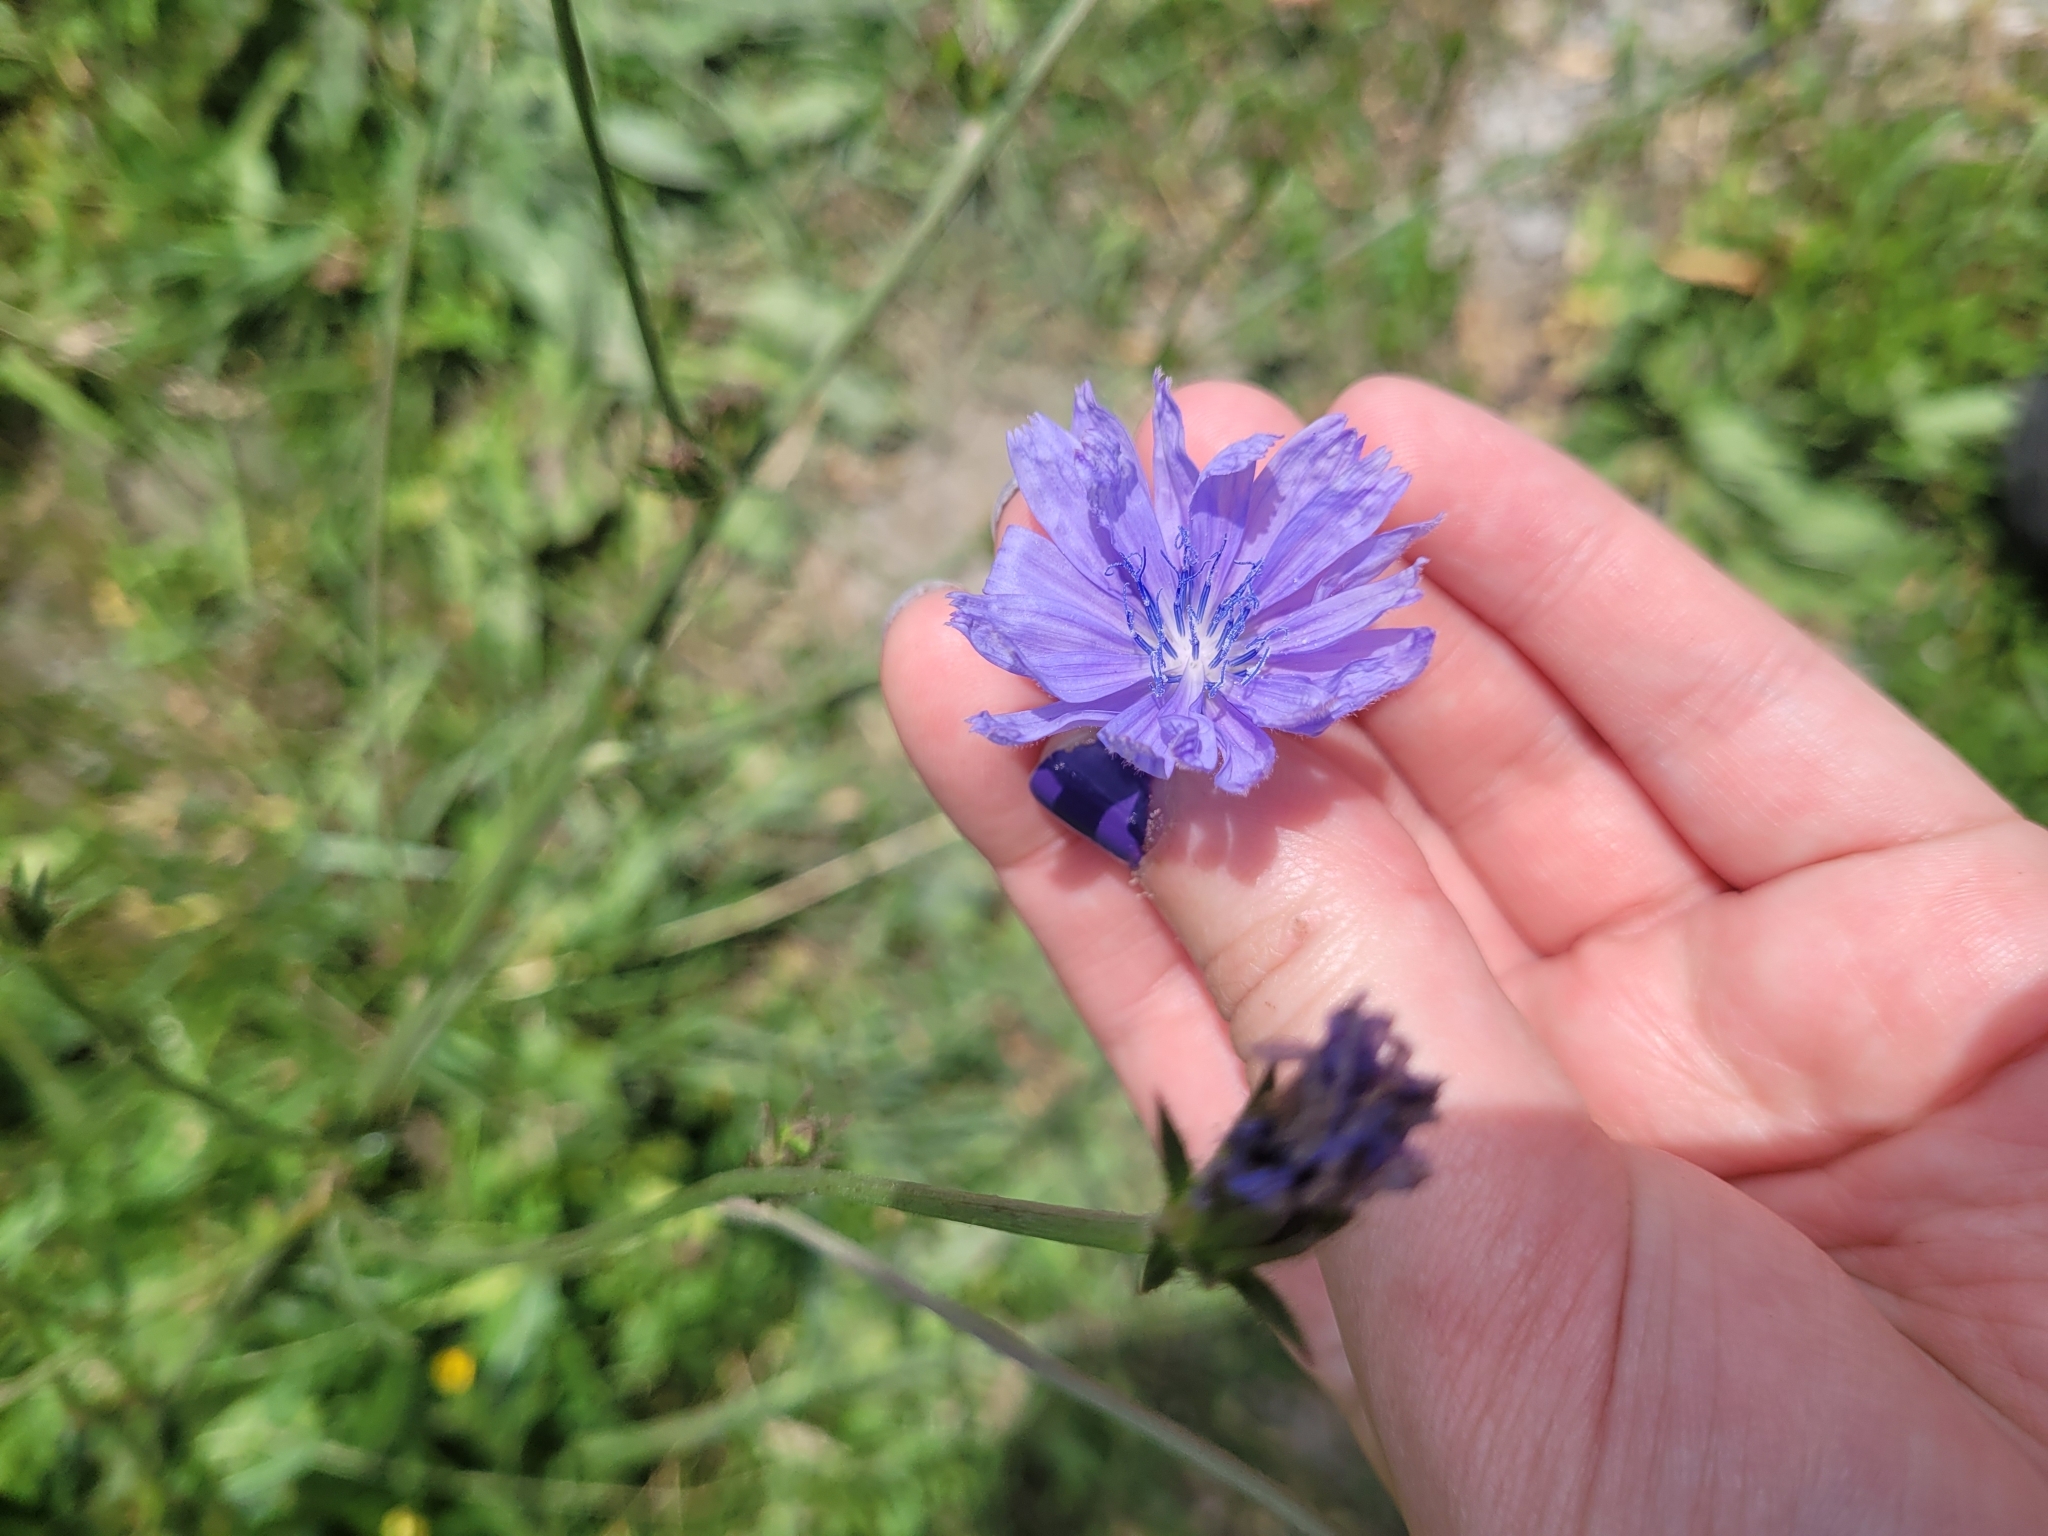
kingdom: Plantae
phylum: Tracheophyta
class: Magnoliopsida
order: Asterales
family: Asteraceae
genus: Cichorium
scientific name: Cichorium intybus
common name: Chicory
